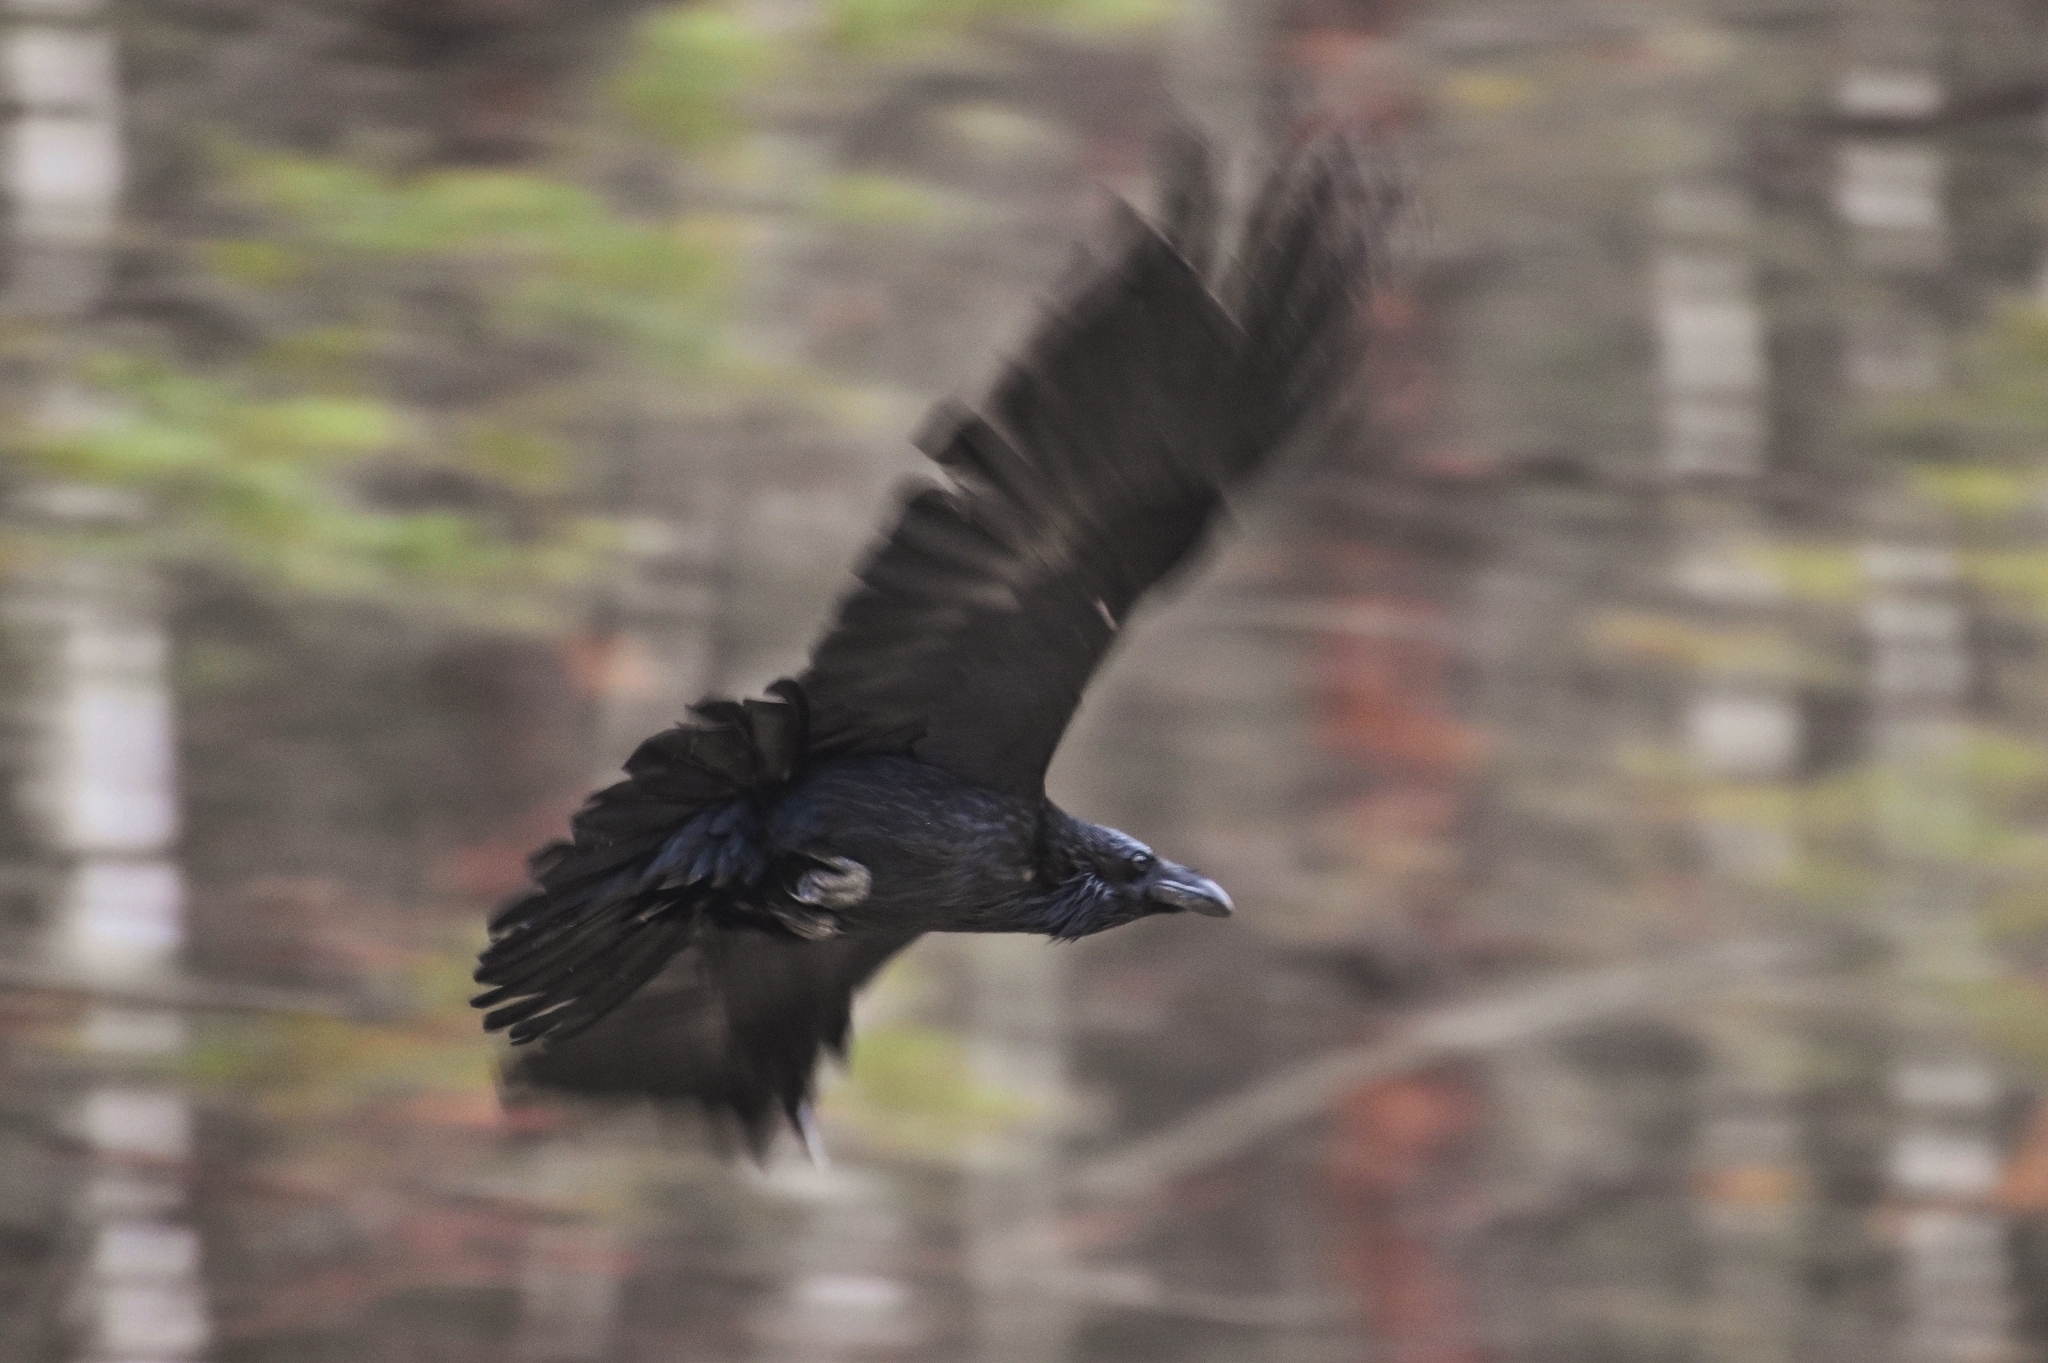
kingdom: Animalia
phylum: Chordata
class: Aves
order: Passeriformes
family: Corvidae
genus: Corvus
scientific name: Corvus corax
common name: Common raven
